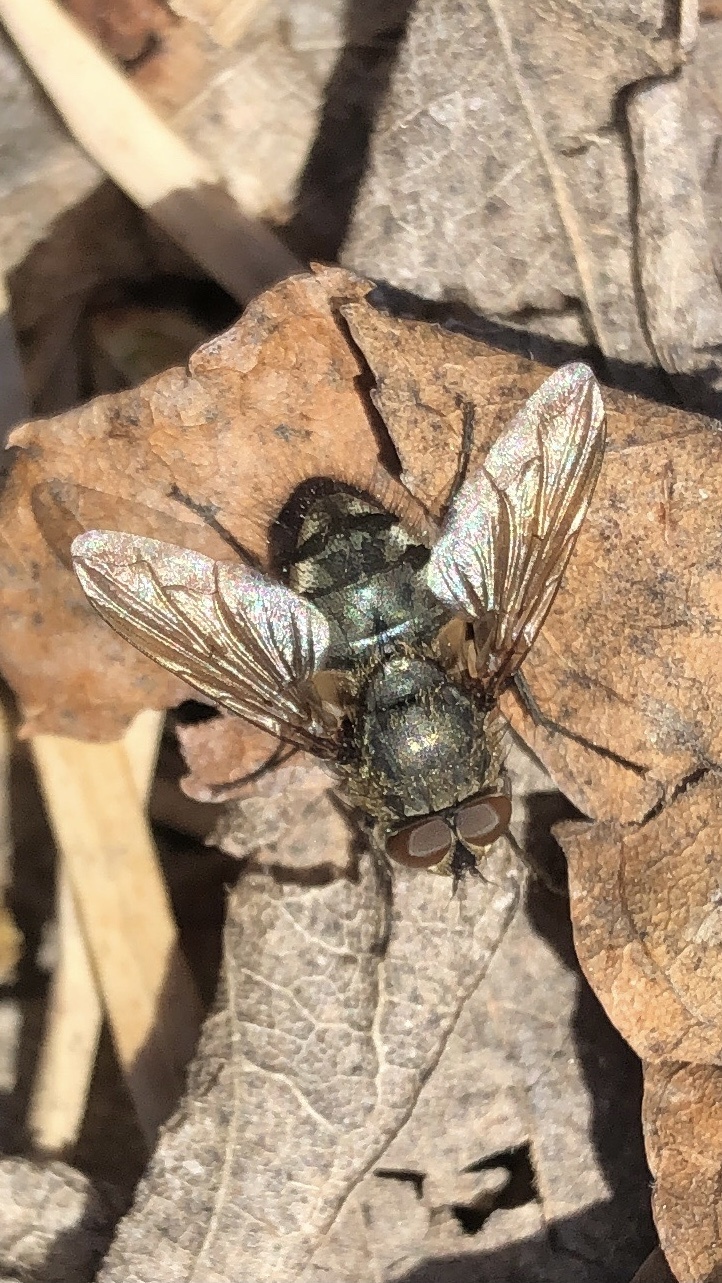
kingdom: Animalia
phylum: Arthropoda
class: Insecta
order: Diptera
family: Polleniidae
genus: Pollenia
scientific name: Pollenia
